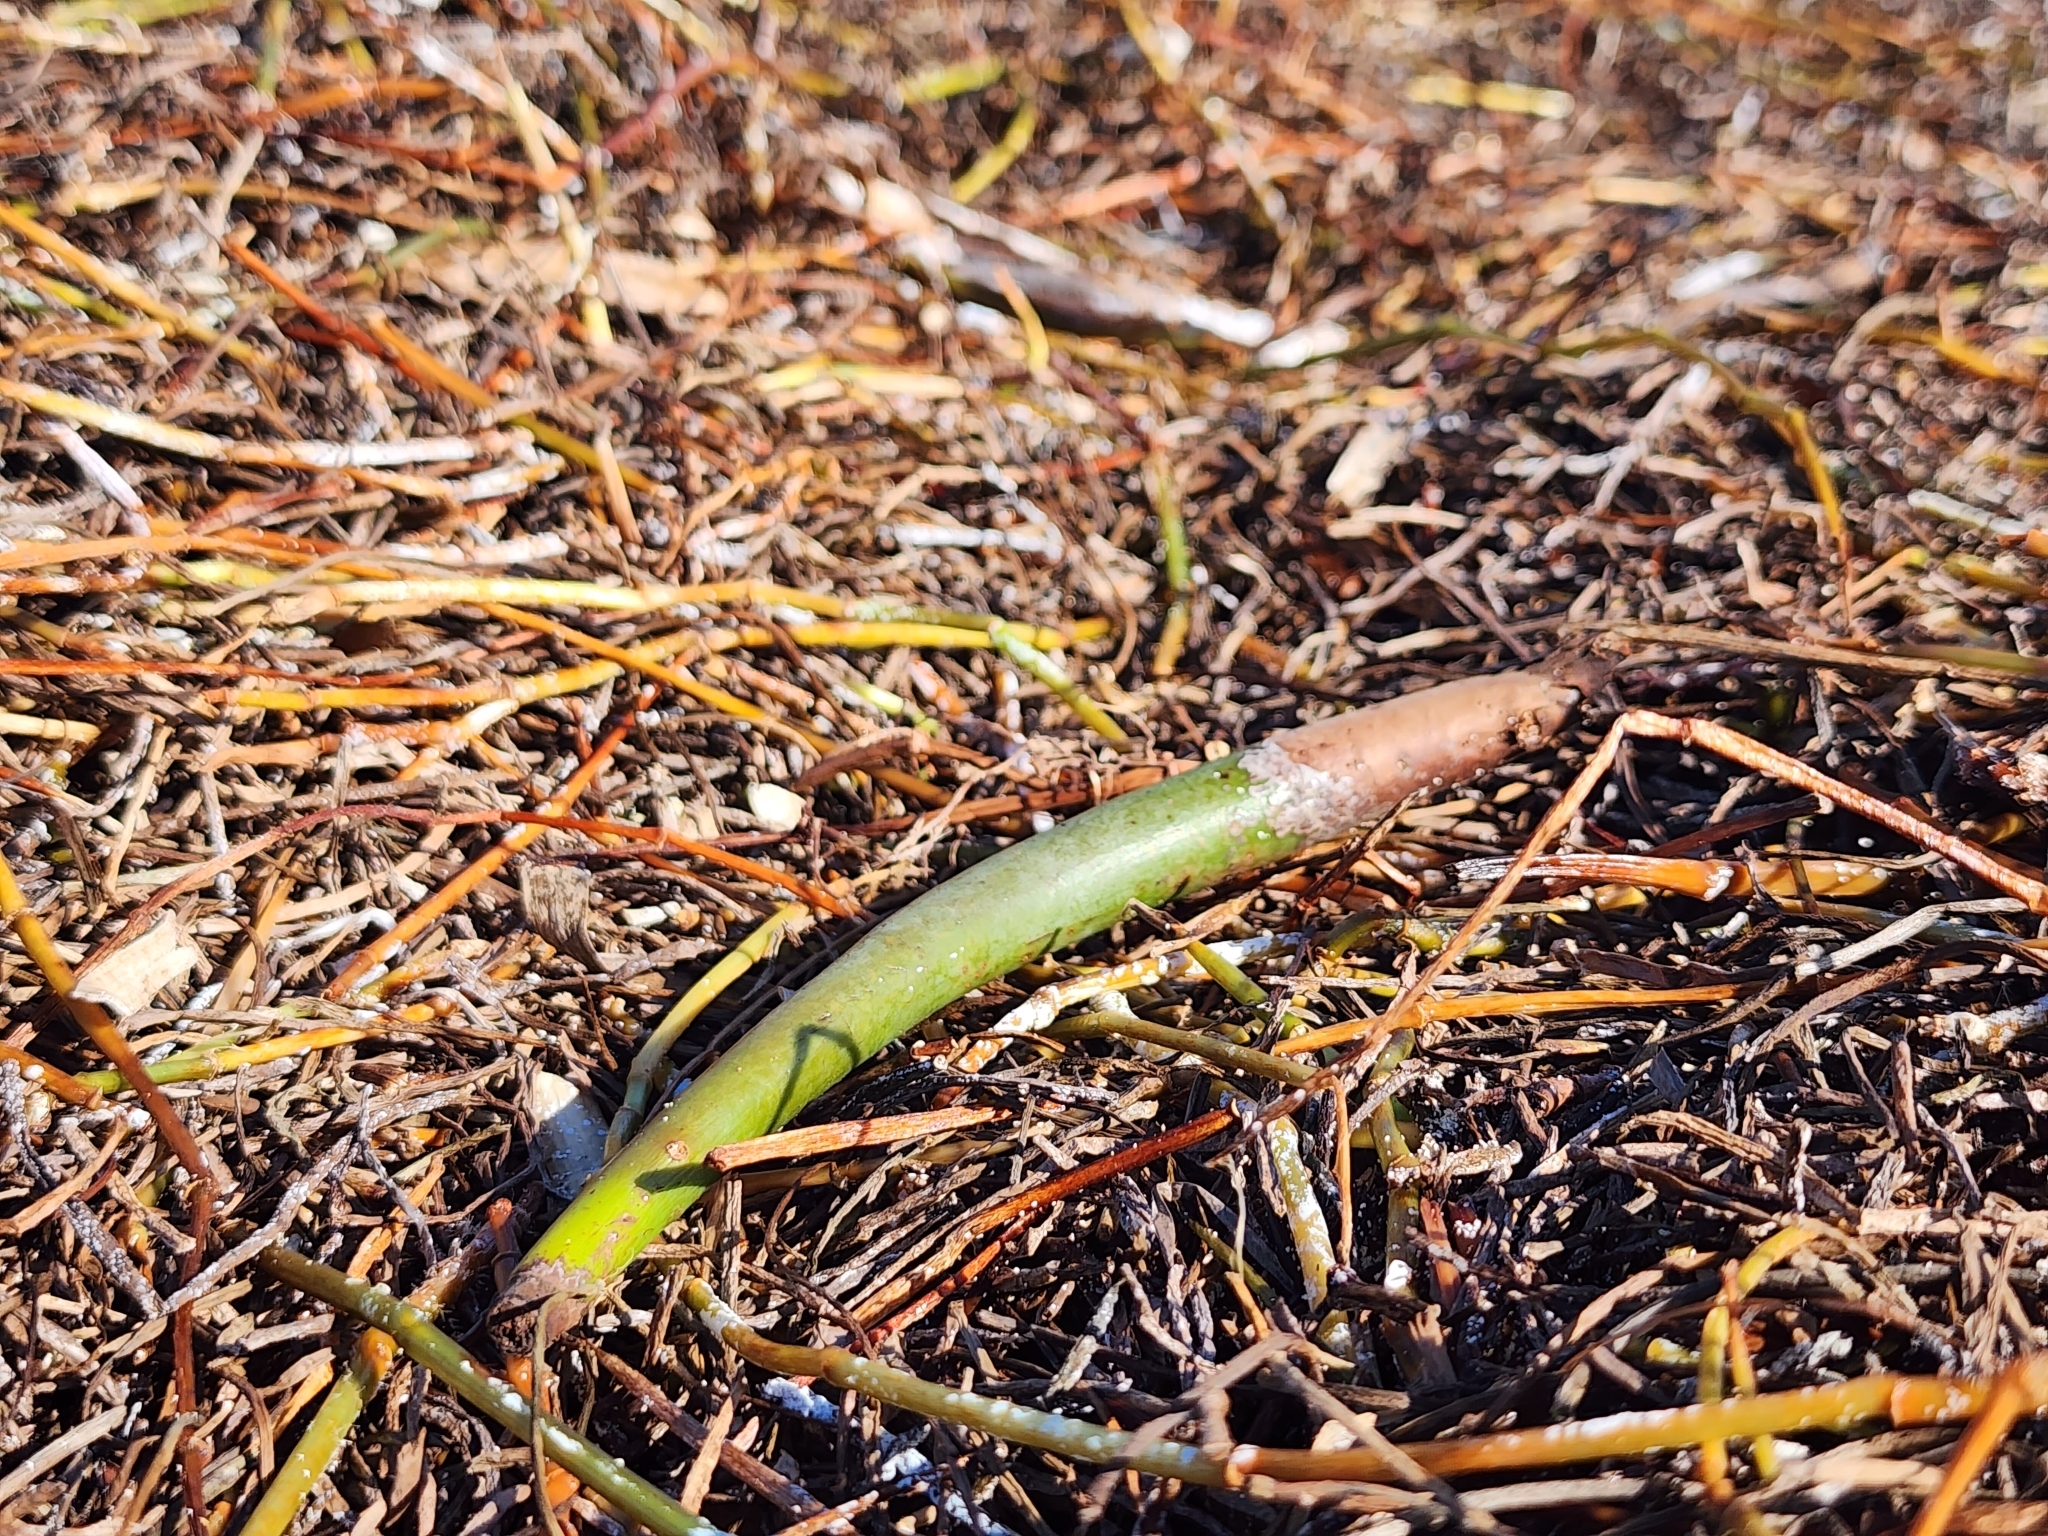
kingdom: Plantae
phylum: Tracheophyta
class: Magnoliopsida
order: Malpighiales
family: Rhizophoraceae
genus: Rhizophora
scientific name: Rhizophora mangle
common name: Red mangrove
